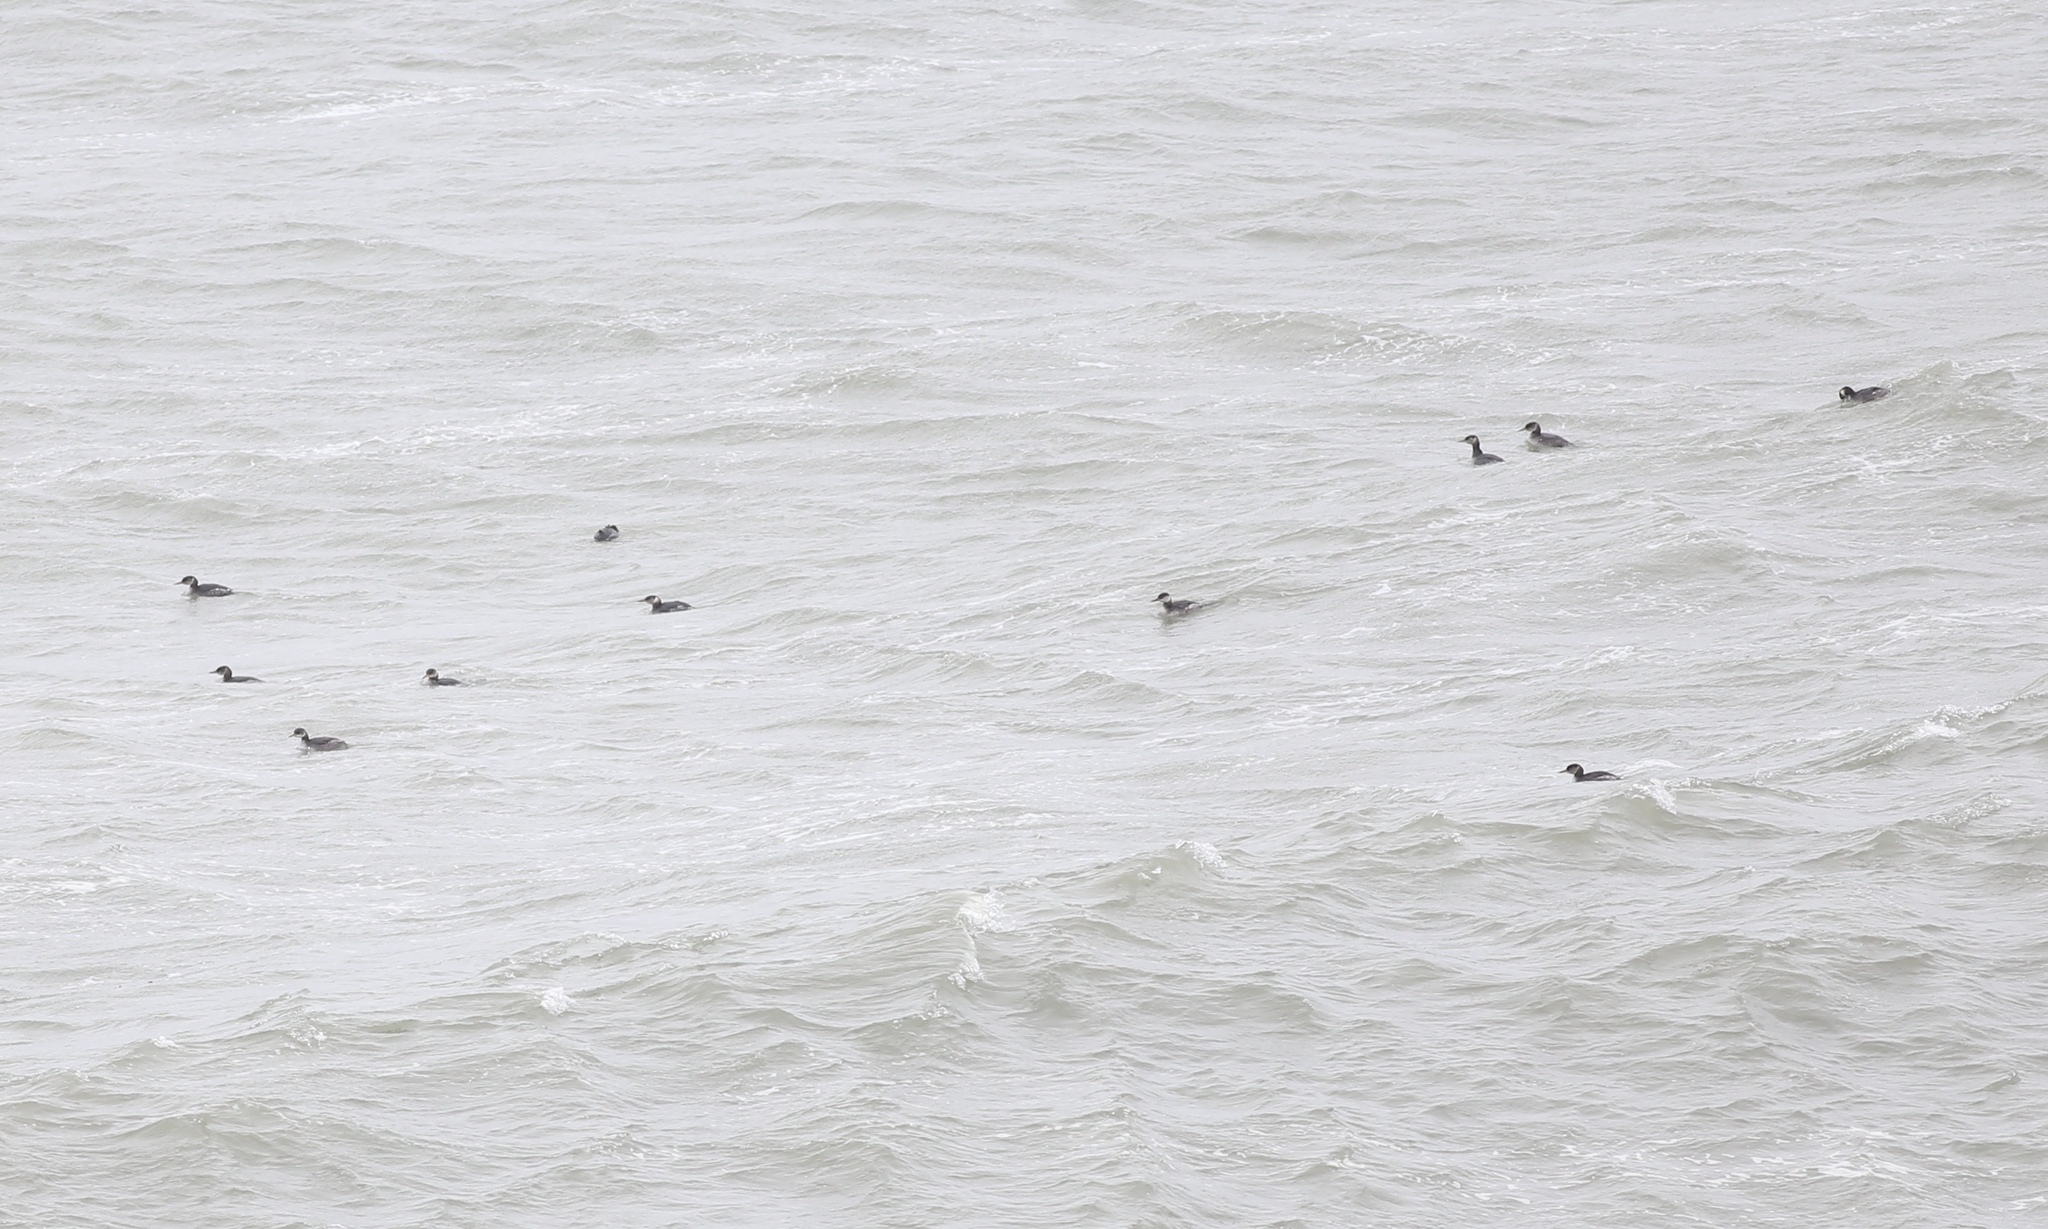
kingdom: Animalia
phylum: Chordata
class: Aves
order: Podicipediformes
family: Podicipedidae
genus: Podiceps
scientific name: Podiceps grisegena
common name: Red-necked grebe
